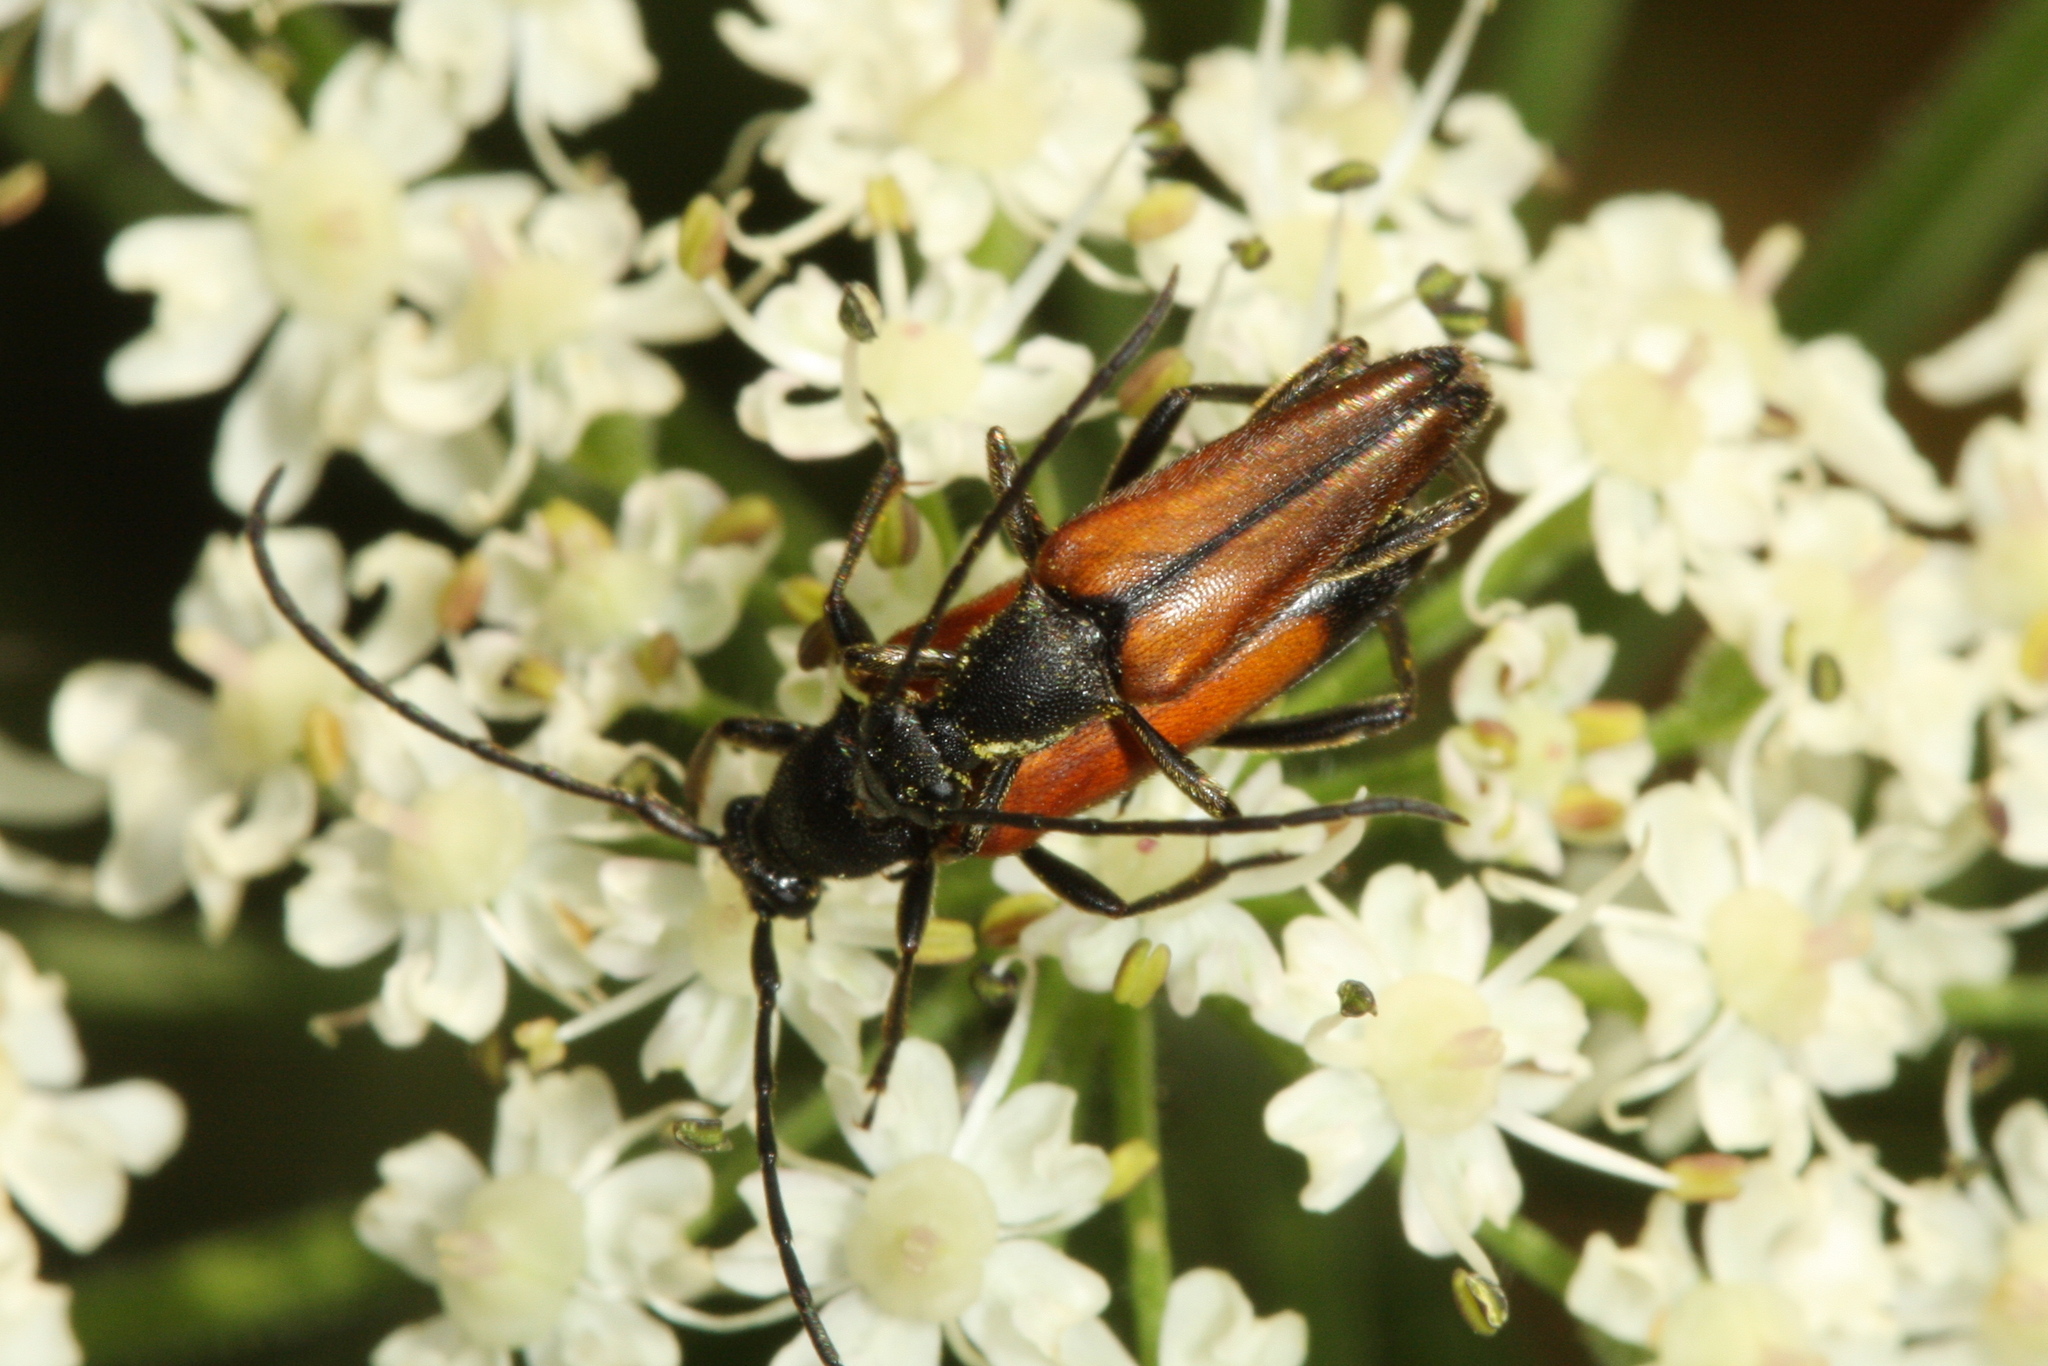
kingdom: Animalia
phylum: Arthropoda
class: Insecta
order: Coleoptera
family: Cerambycidae
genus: Stenurella
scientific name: Stenurella melanura
